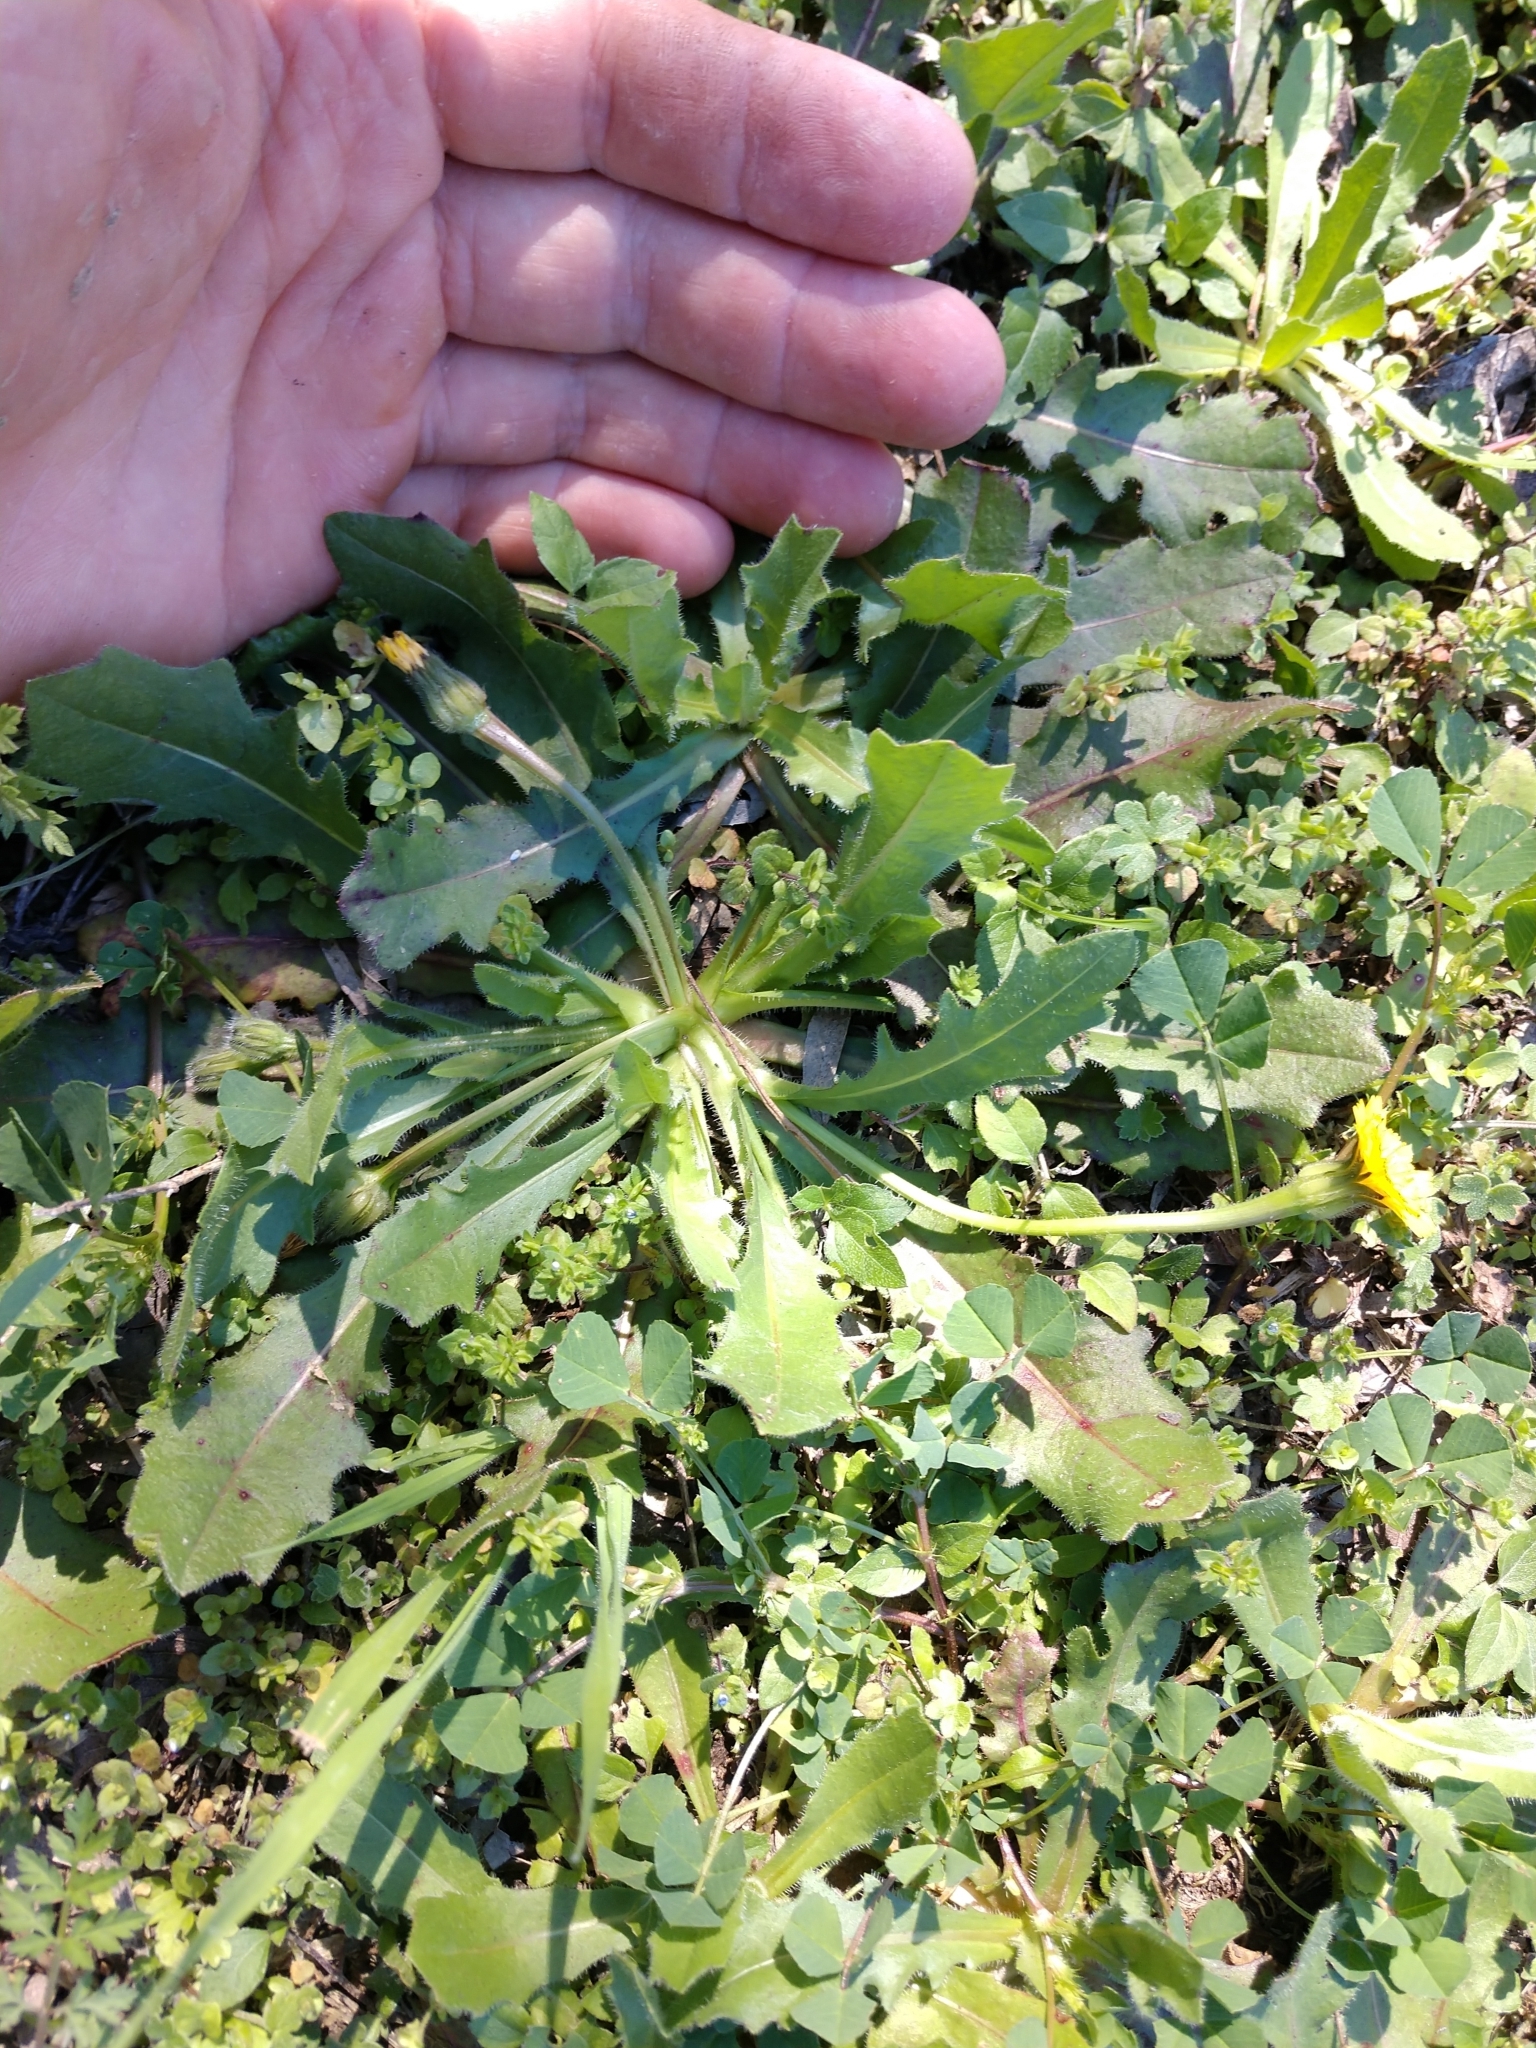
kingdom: Plantae
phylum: Tracheophyta
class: Magnoliopsida
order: Asterales
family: Asteraceae
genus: Hedypnois
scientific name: Hedypnois rhagadioloides
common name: Cretan weed
